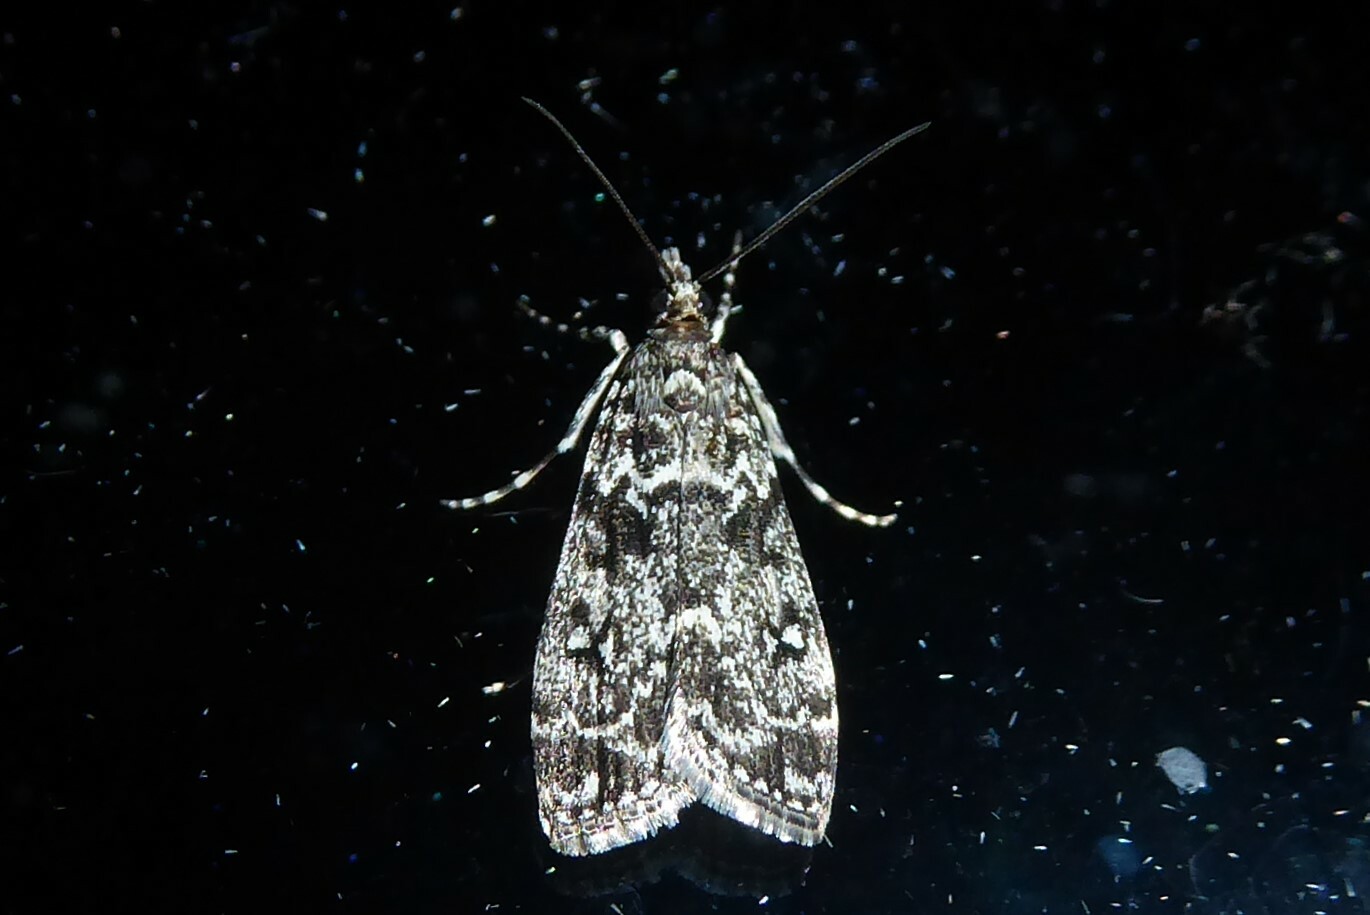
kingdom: Animalia
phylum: Arthropoda
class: Insecta
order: Lepidoptera
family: Crambidae
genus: Eudonia
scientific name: Eudonia philerga
